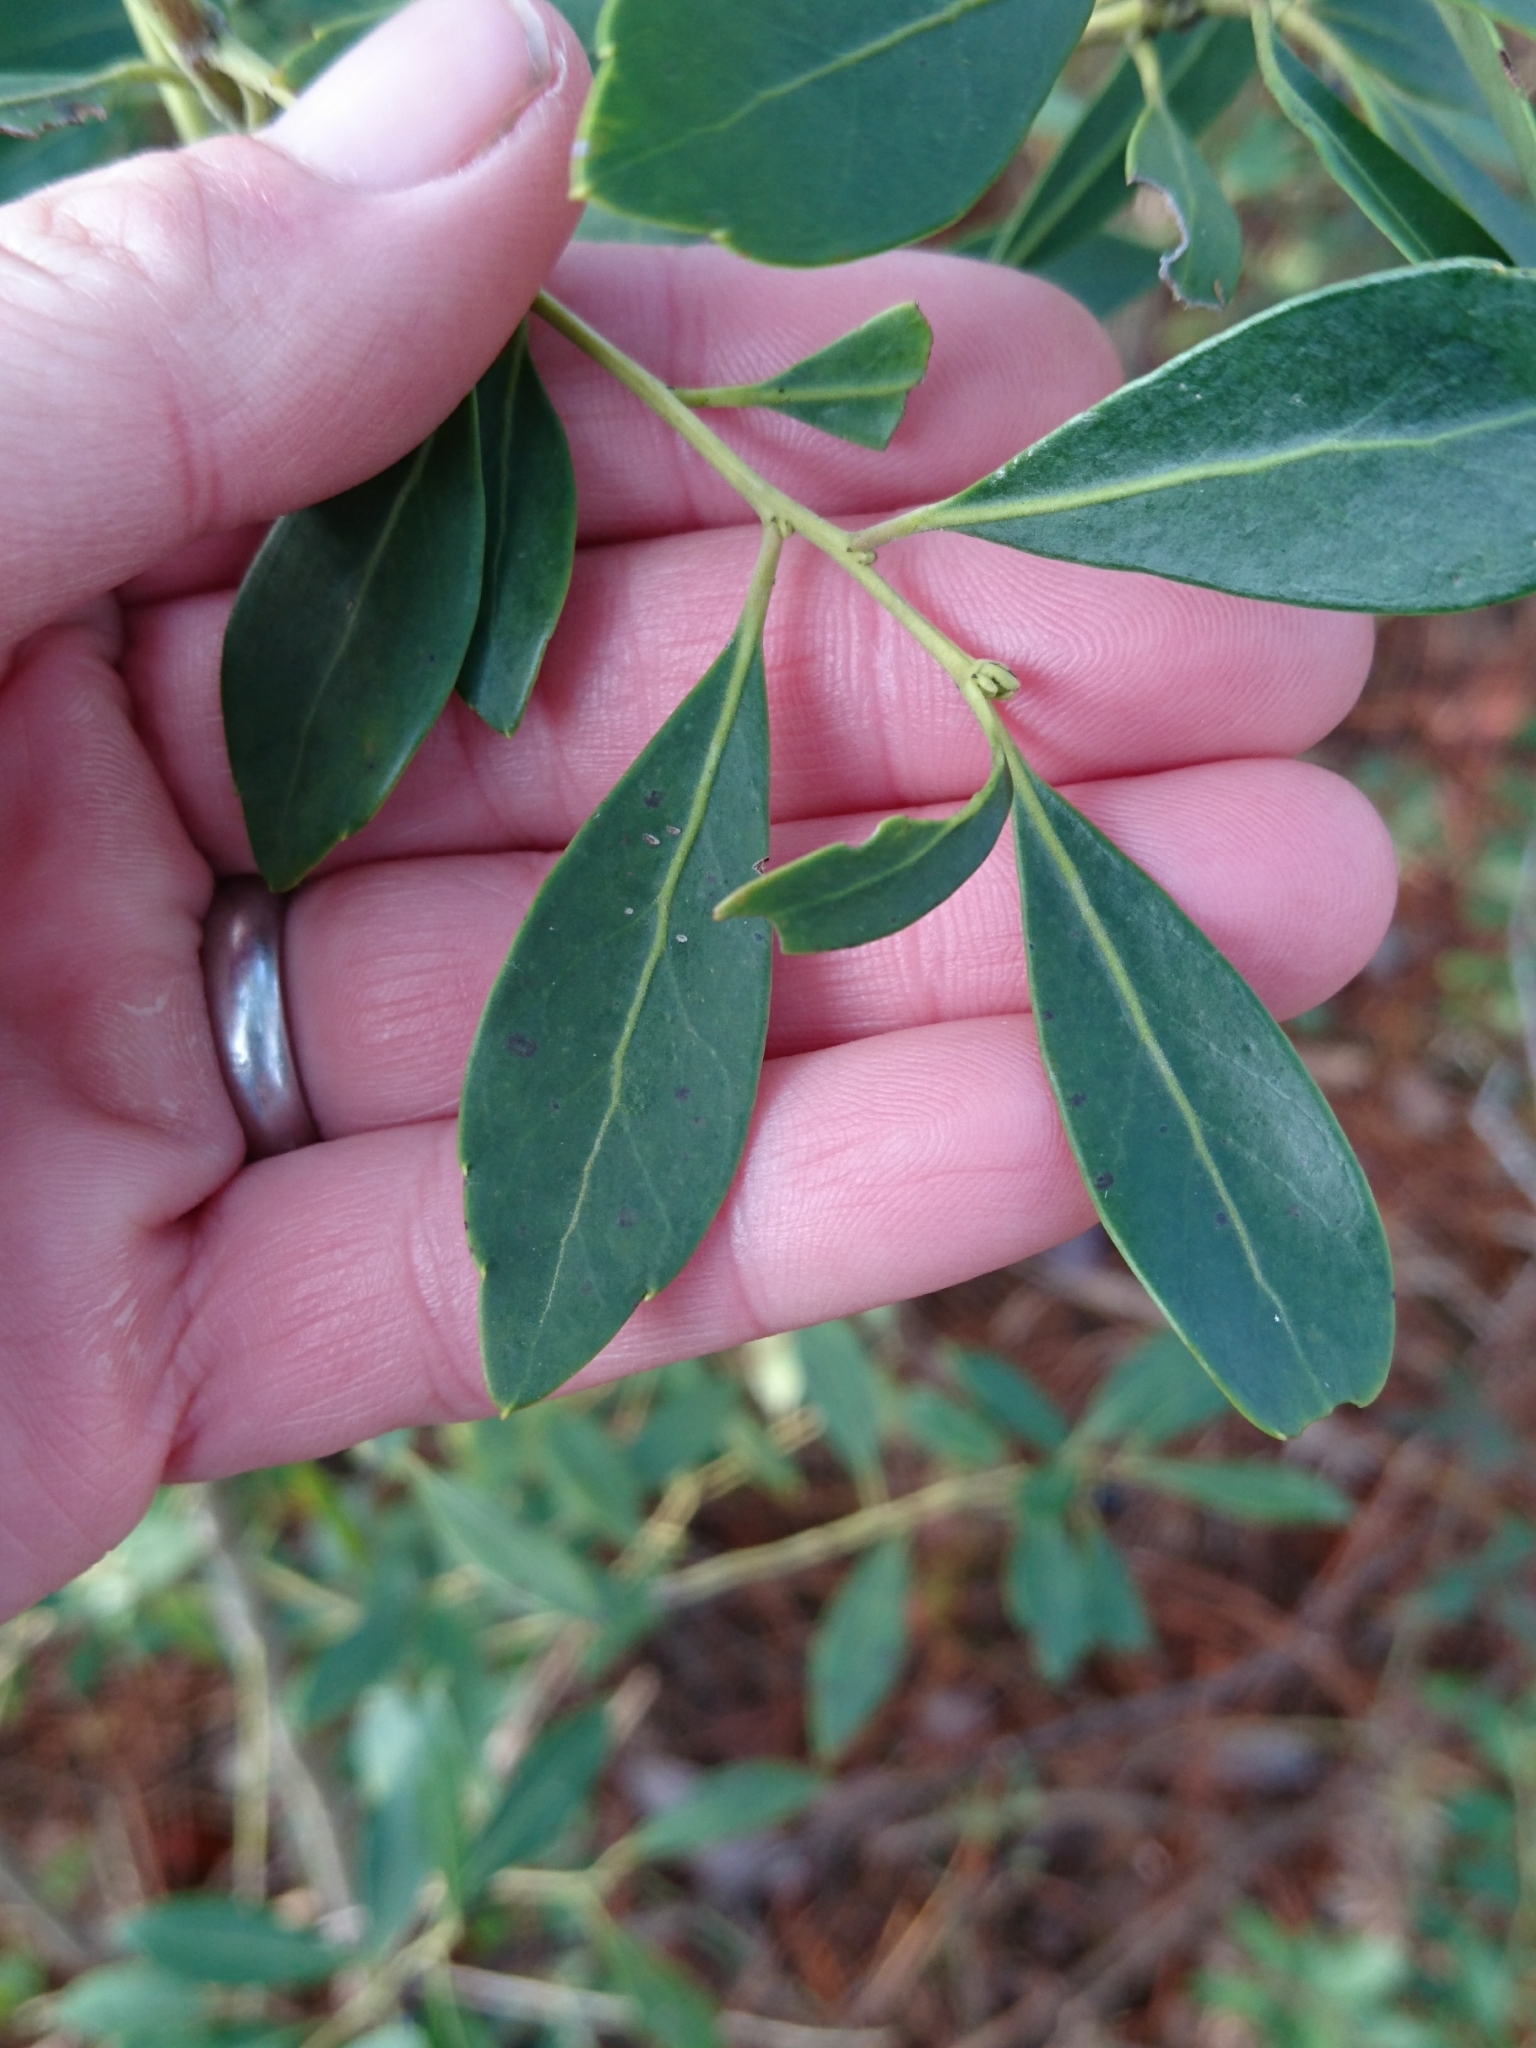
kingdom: Plantae
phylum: Tracheophyta
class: Magnoliopsida
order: Aquifoliales
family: Aquifoliaceae
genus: Ilex
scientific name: Ilex glabra
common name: Bitter gallberry
